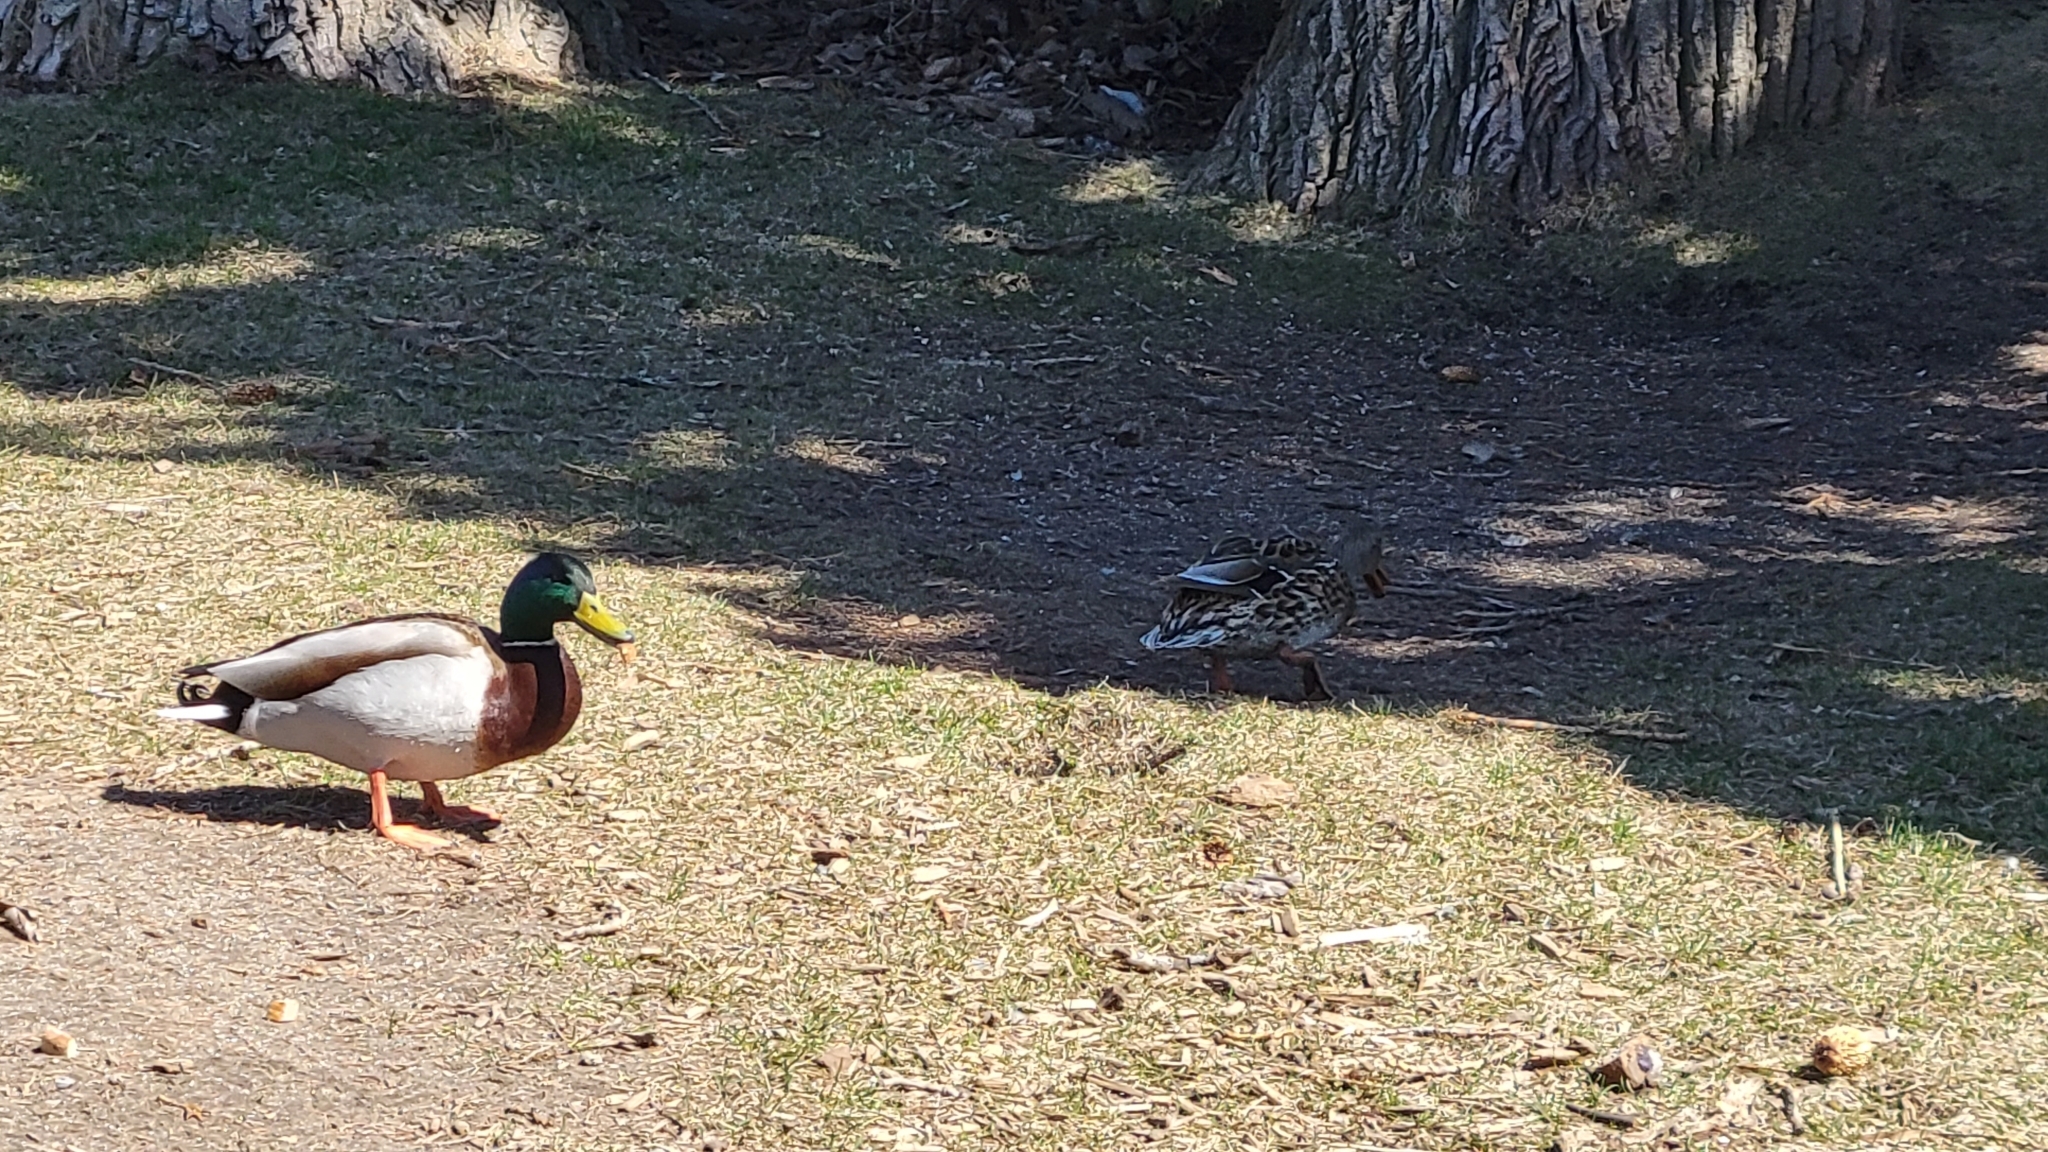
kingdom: Animalia
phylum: Chordata
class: Aves
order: Anseriformes
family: Anatidae
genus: Anas
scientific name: Anas platyrhynchos
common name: Mallard
